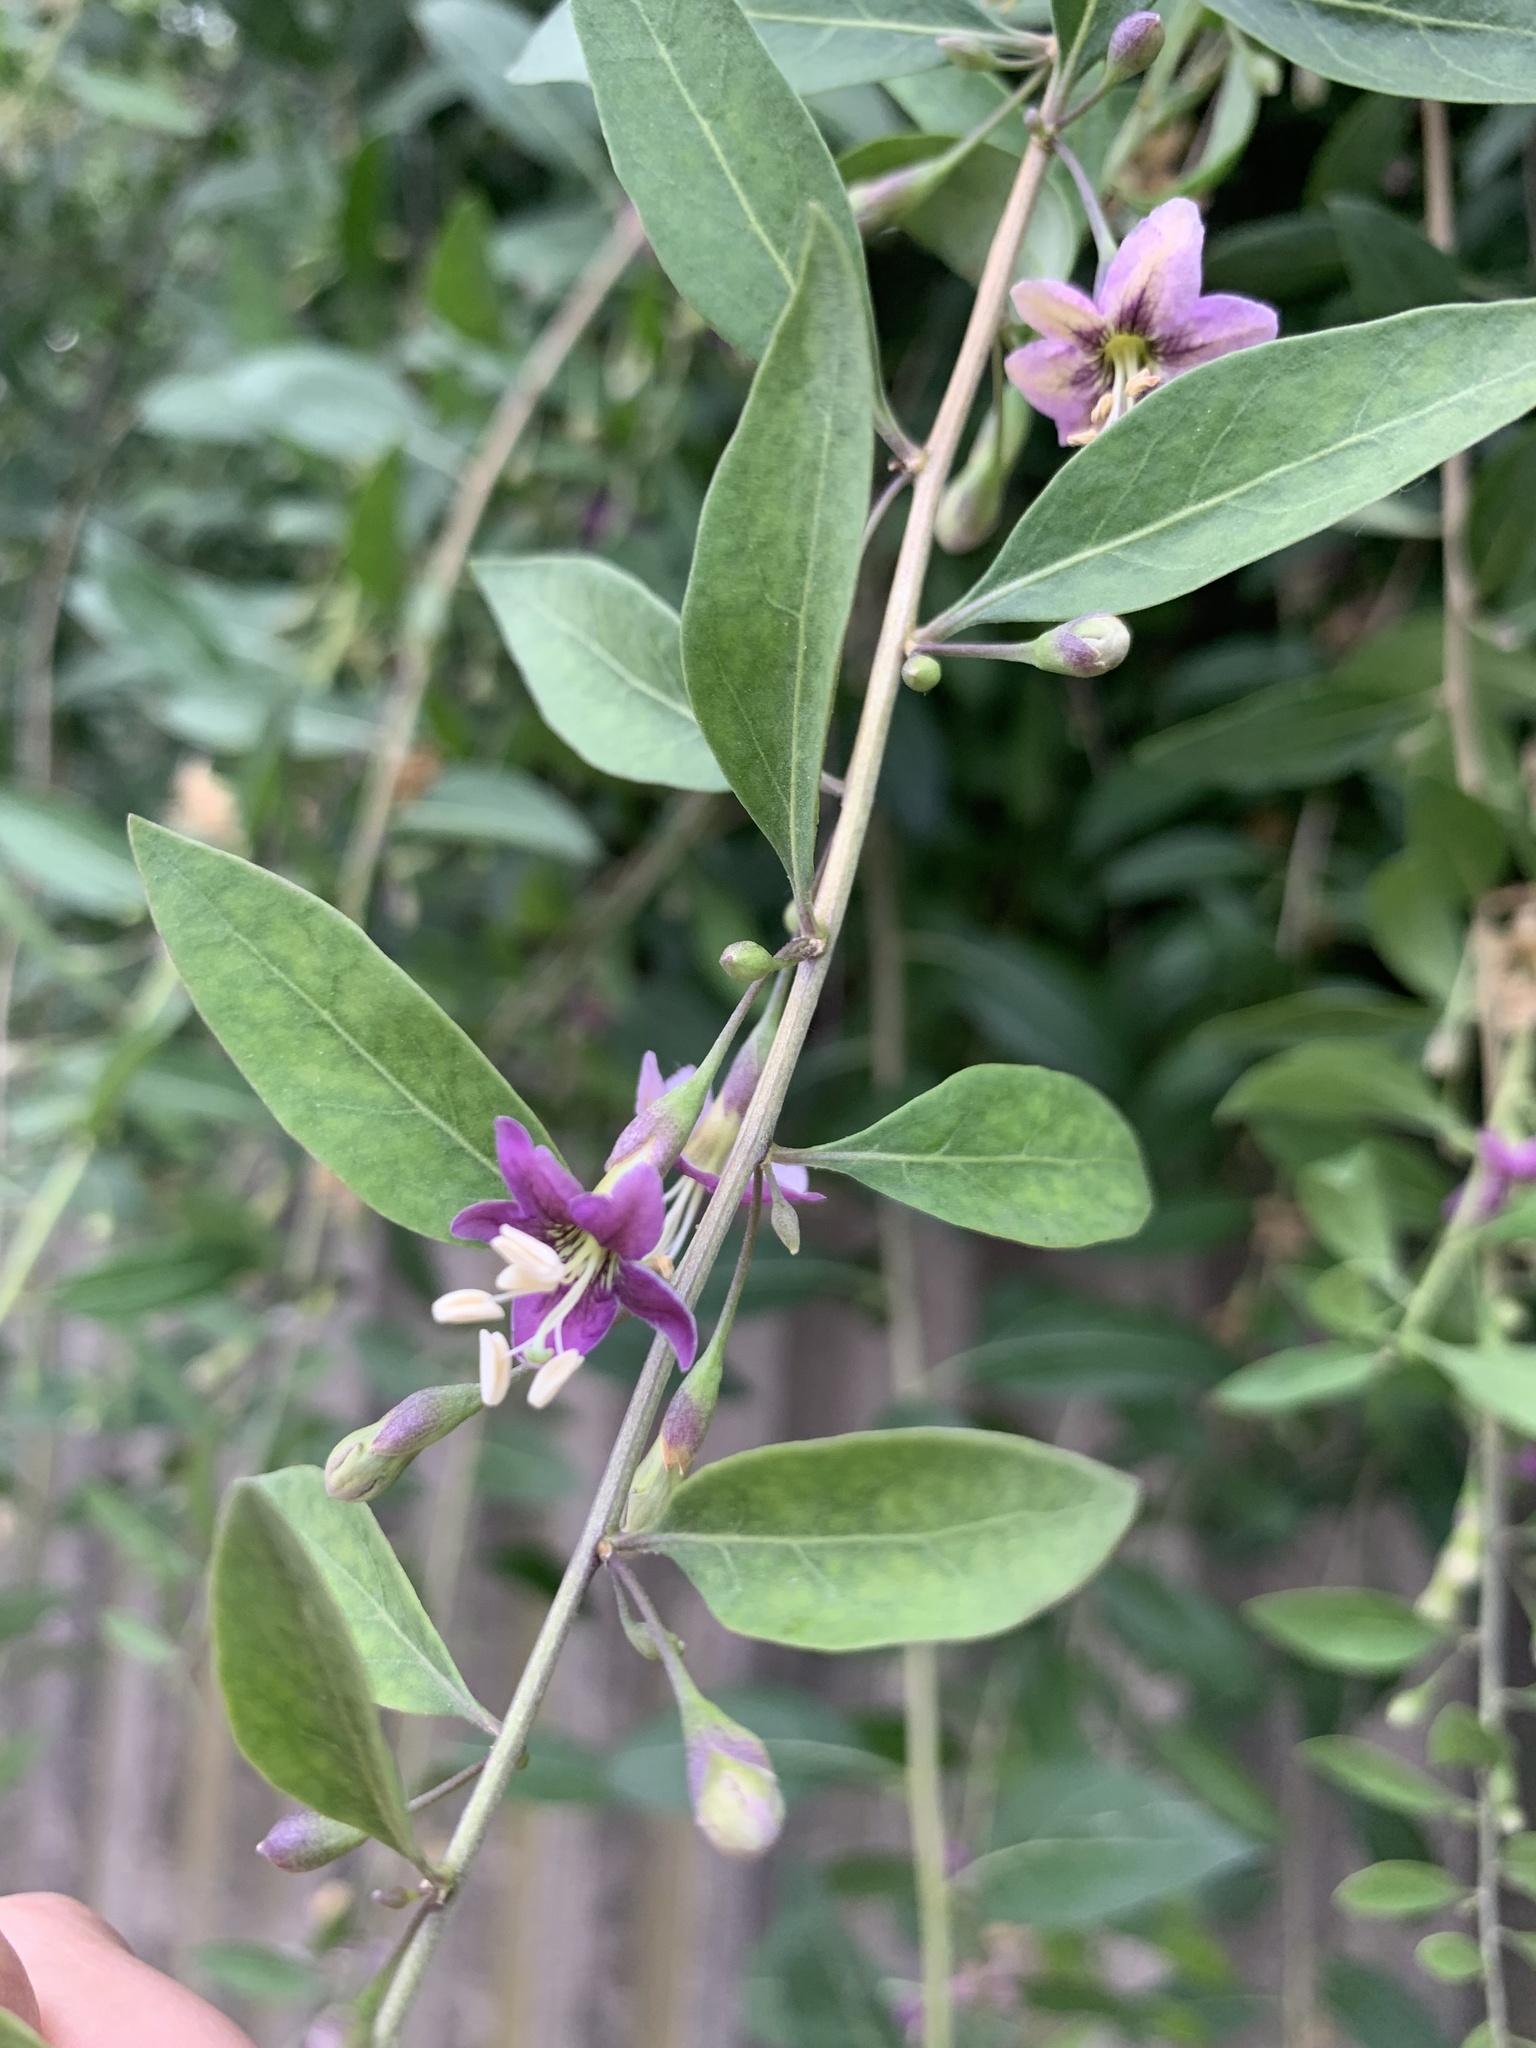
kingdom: Plantae
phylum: Tracheophyta
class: Magnoliopsida
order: Solanales
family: Solanaceae
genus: Lycium
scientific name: Lycium barbarum
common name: Duke of argyll's teaplant
